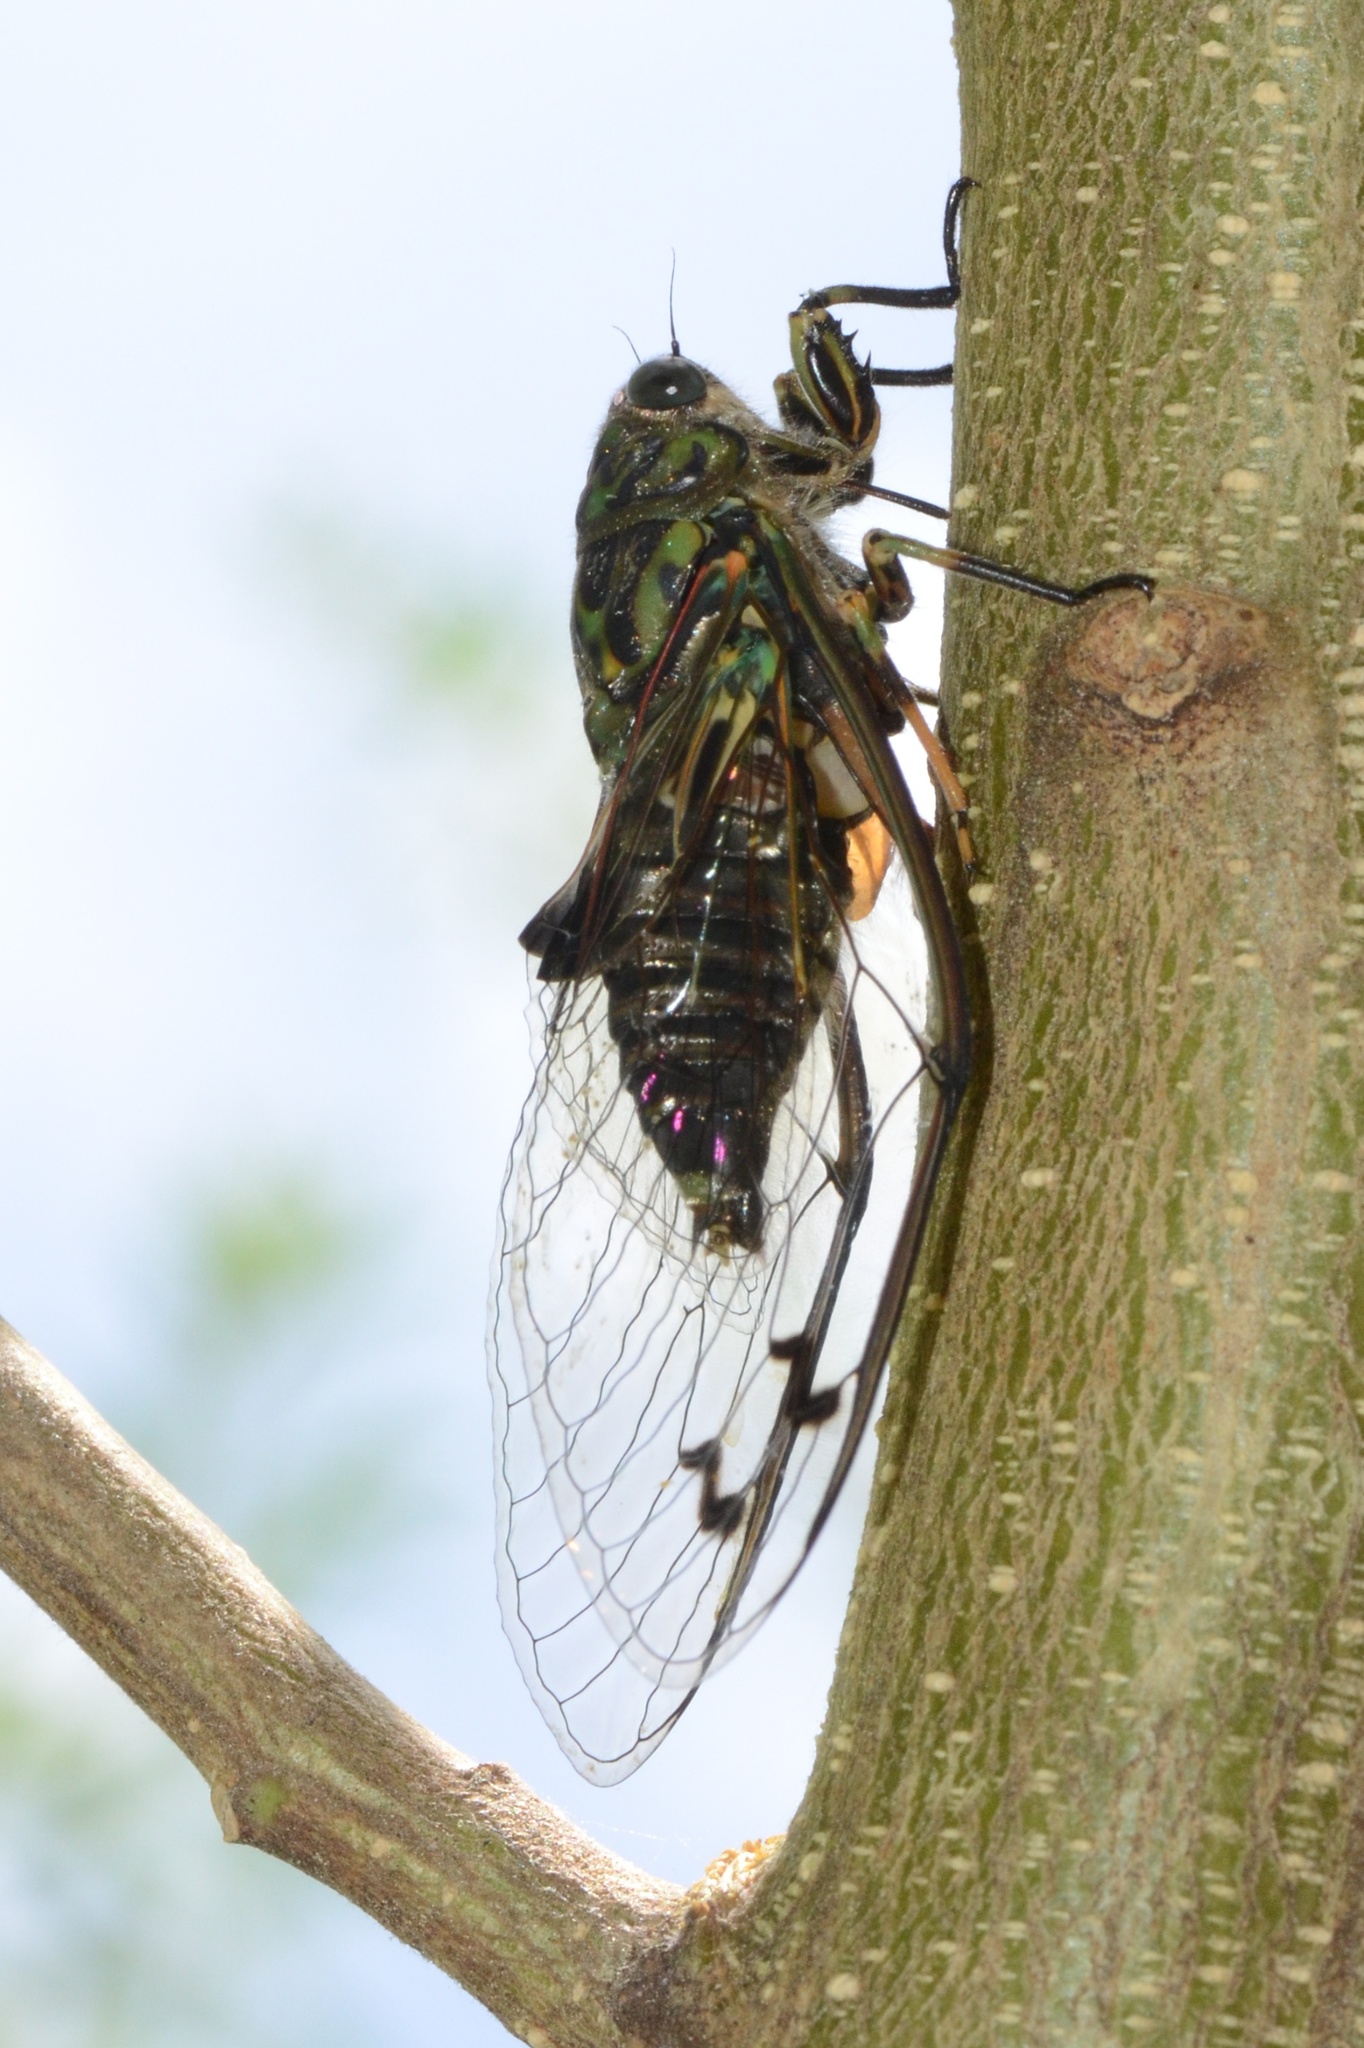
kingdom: Animalia
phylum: Arthropoda
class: Insecta
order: Hemiptera
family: Cicadidae
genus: Amphipsalta
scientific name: Amphipsalta zelandica
